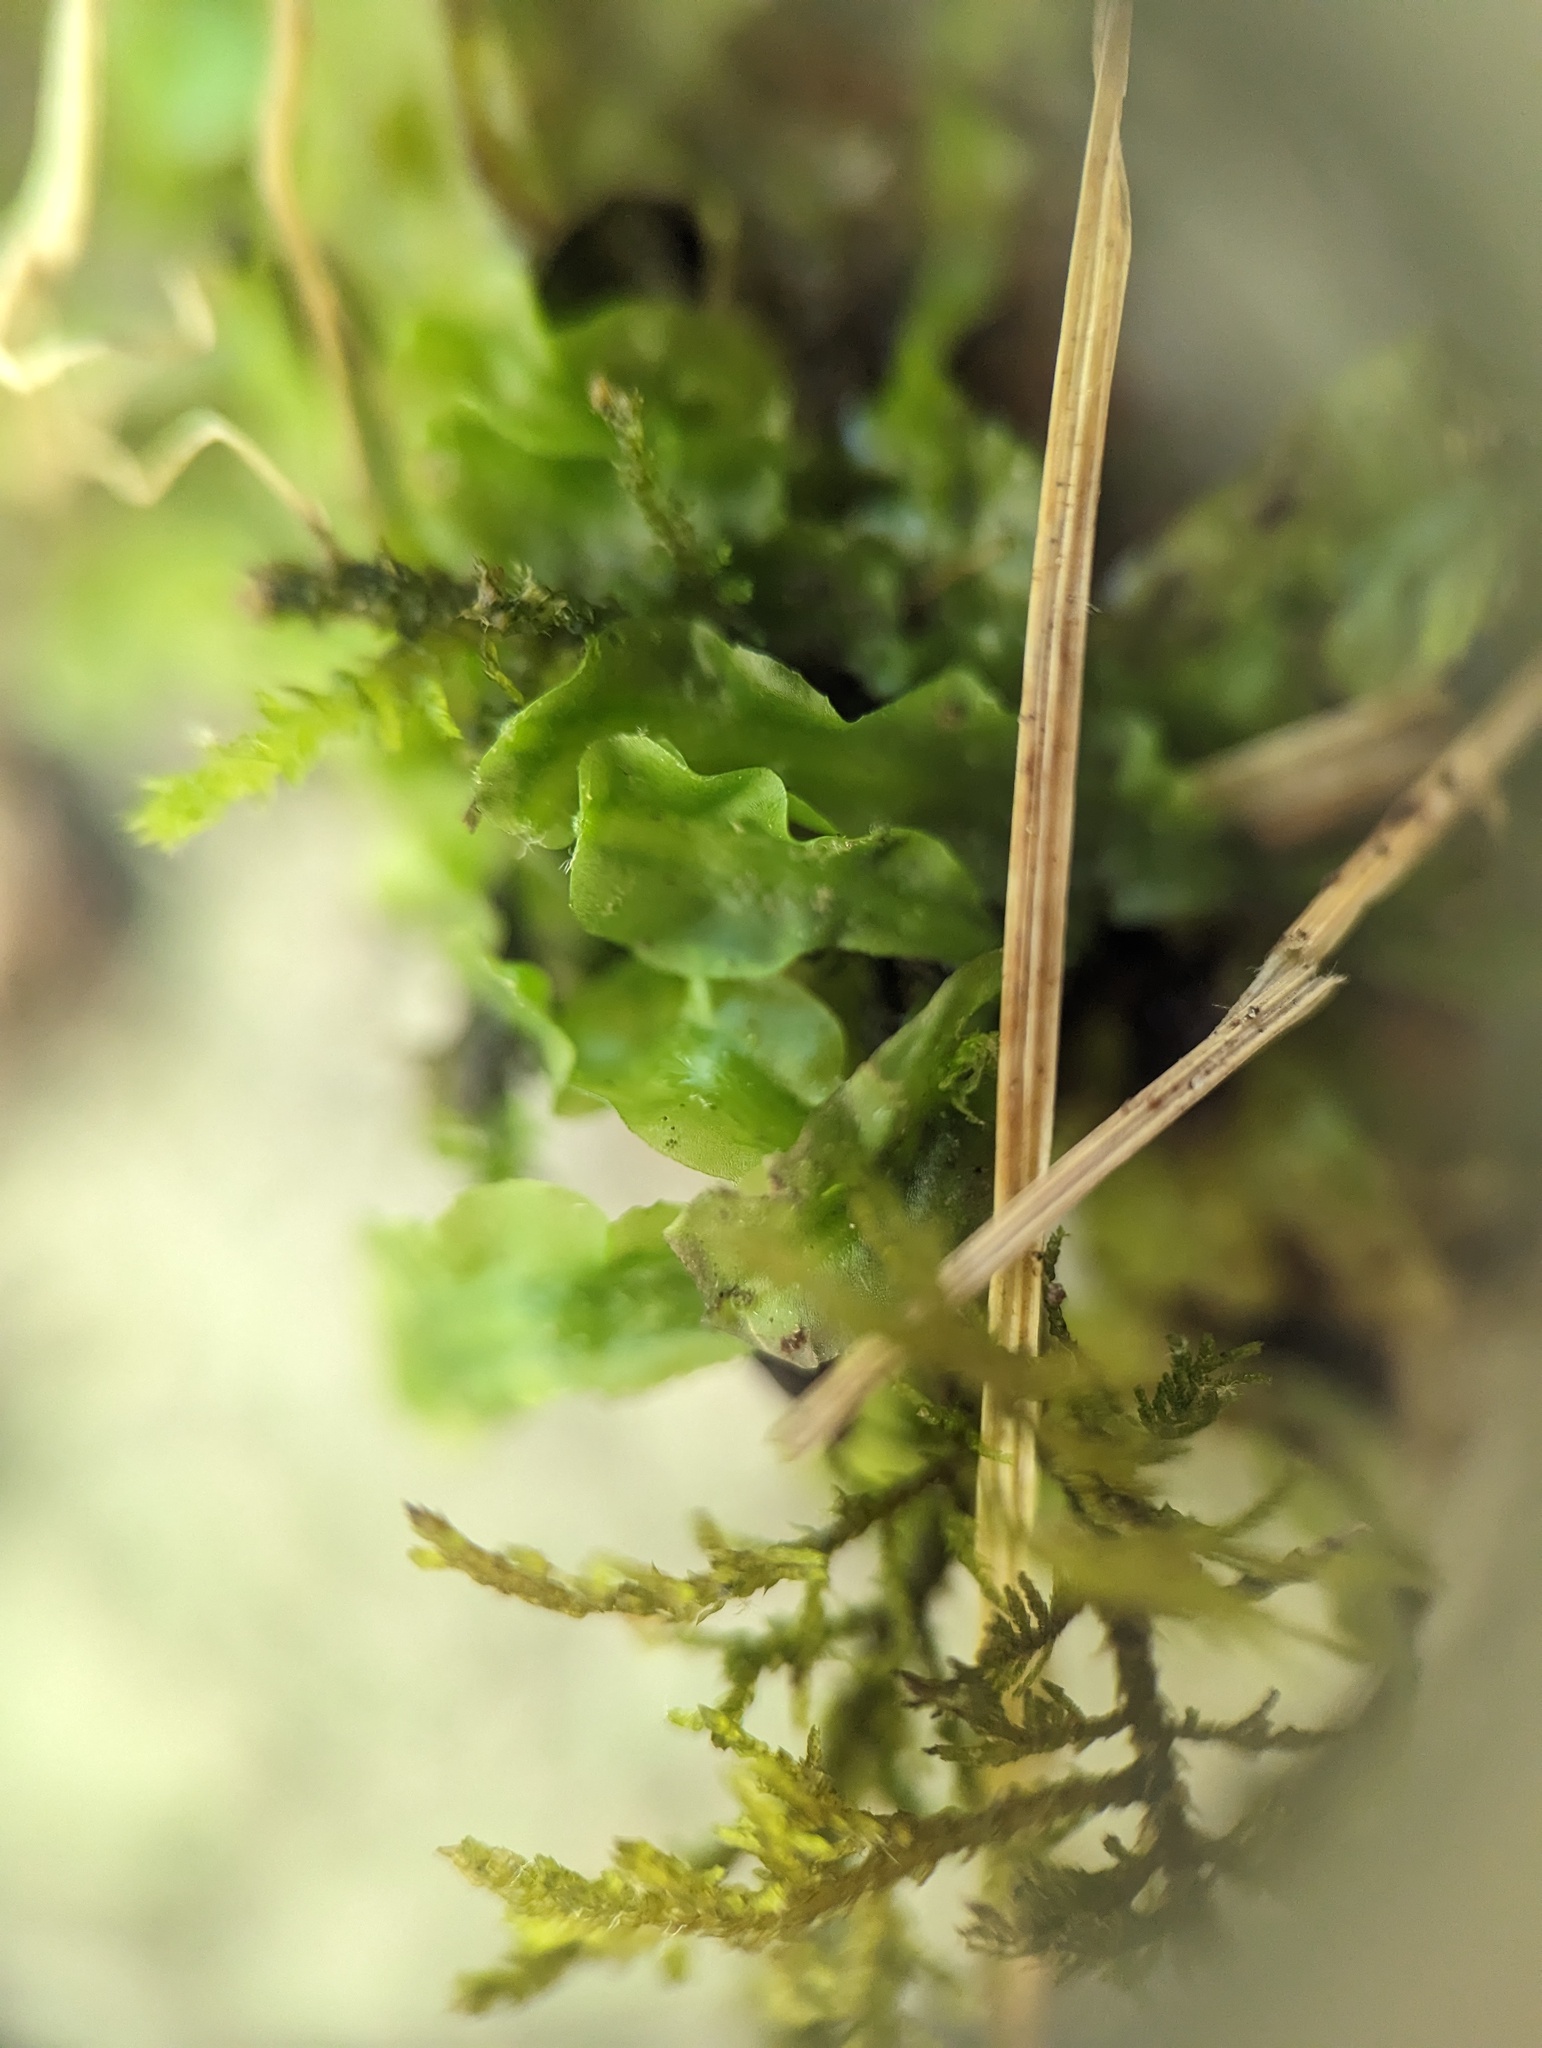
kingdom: Plantae
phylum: Marchantiophyta
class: Jungermanniopsida
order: Pallaviciniales
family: Pallaviciniaceae
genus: Pallavicinia
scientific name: Pallavicinia lyellii
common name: Veilwort
